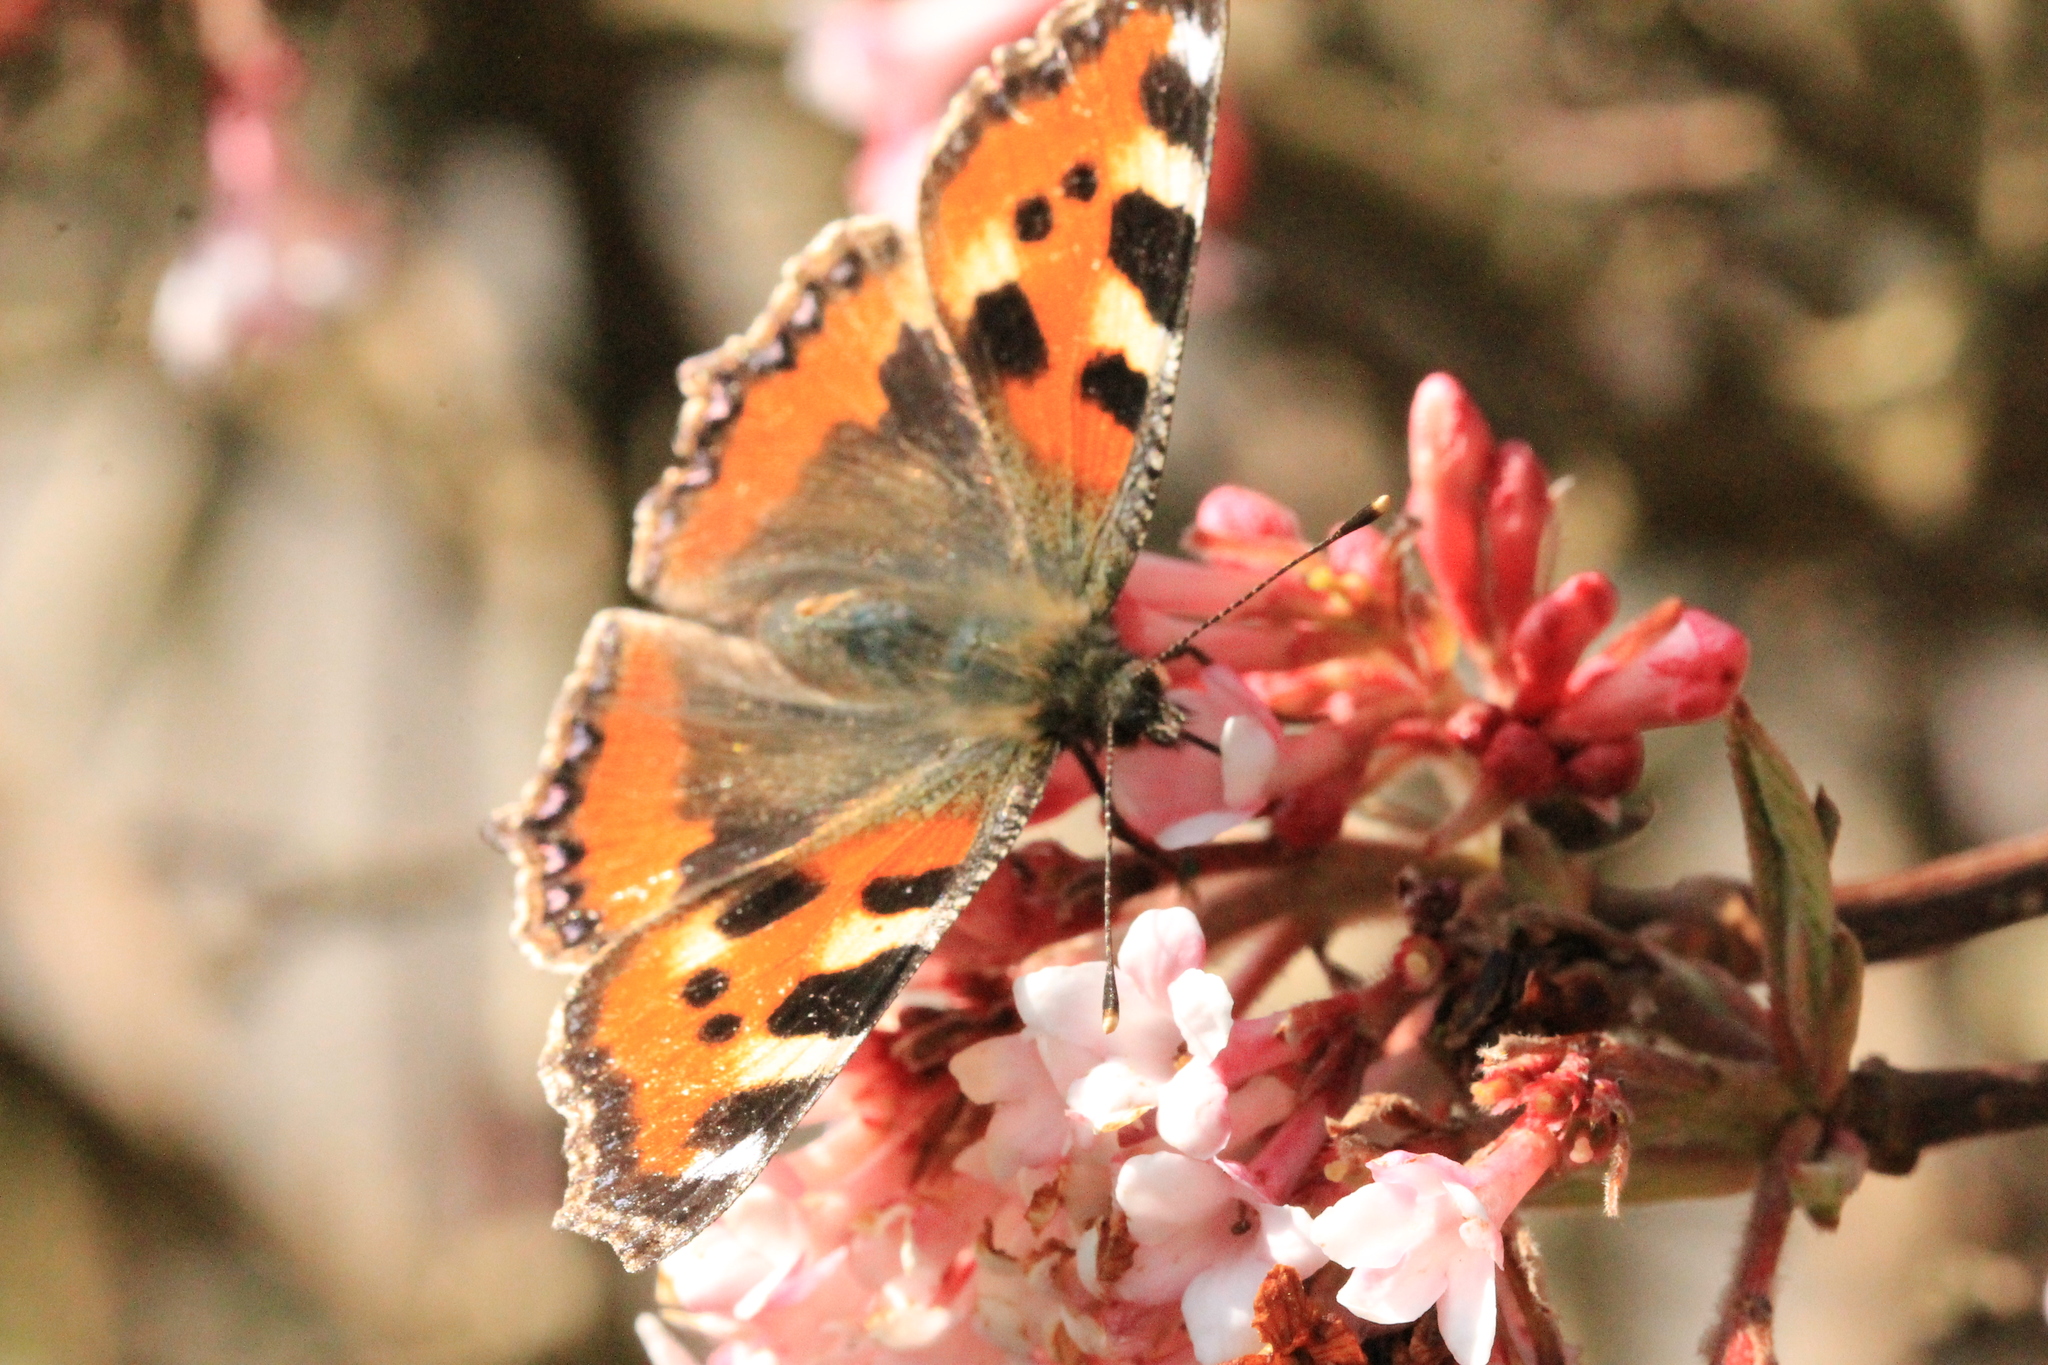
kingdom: Animalia
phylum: Arthropoda
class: Insecta
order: Lepidoptera
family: Nymphalidae
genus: Aglais
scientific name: Aglais urticae
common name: Small tortoiseshell
